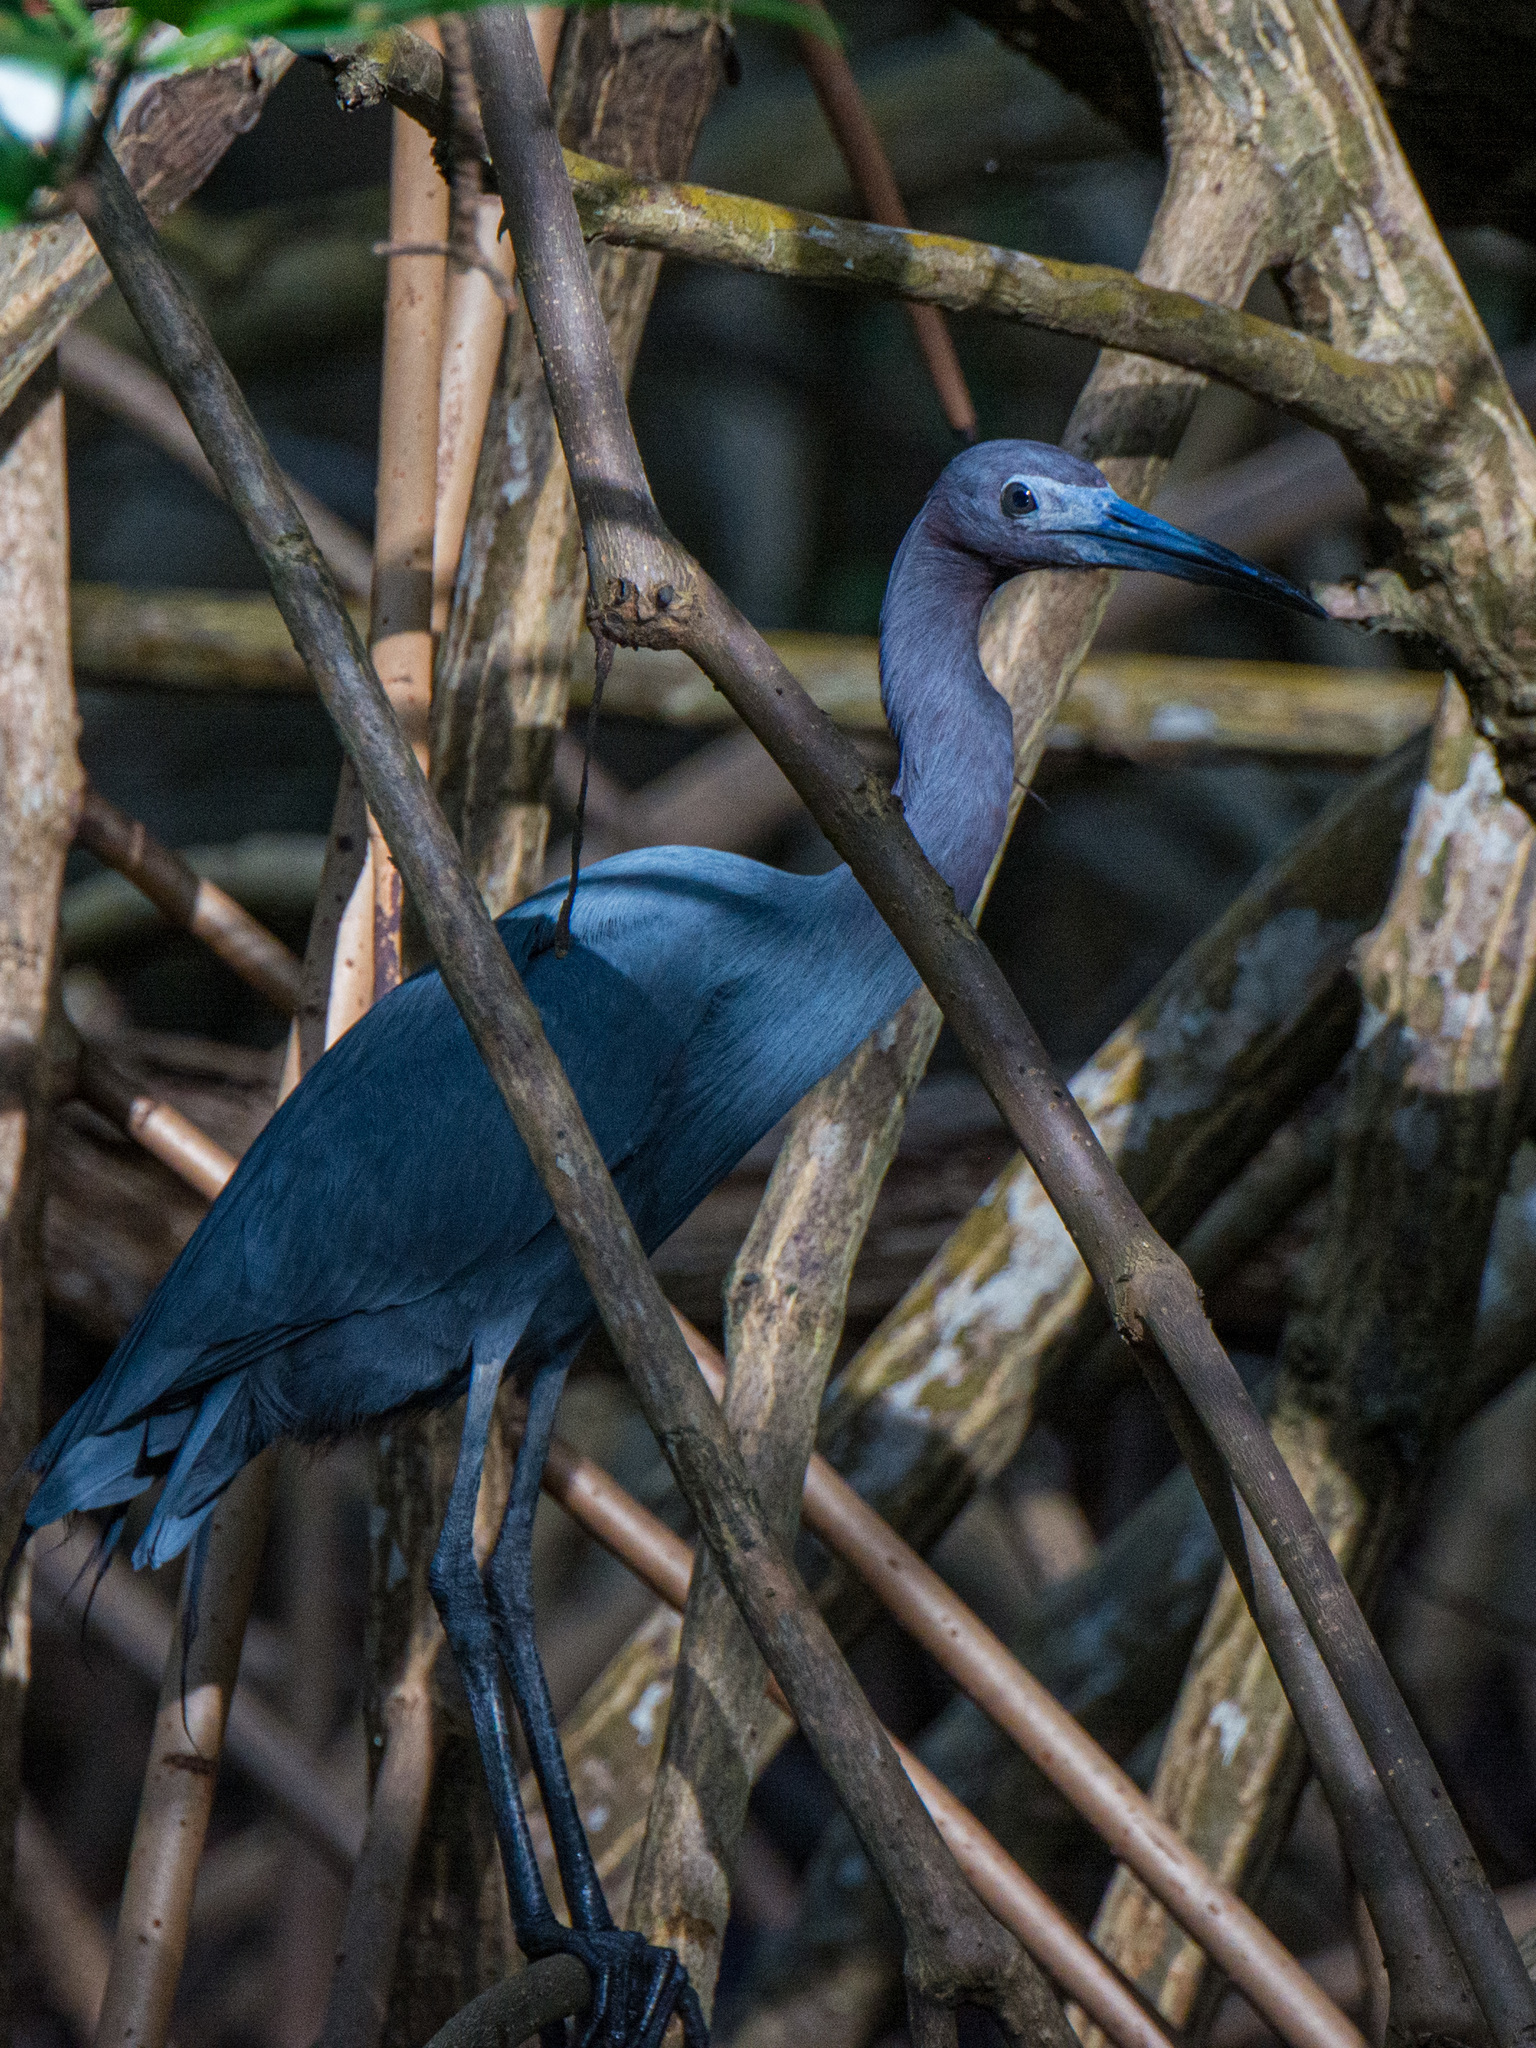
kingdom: Animalia
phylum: Chordata
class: Aves
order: Pelecaniformes
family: Ardeidae
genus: Egretta
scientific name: Egretta caerulea
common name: Little blue heron
